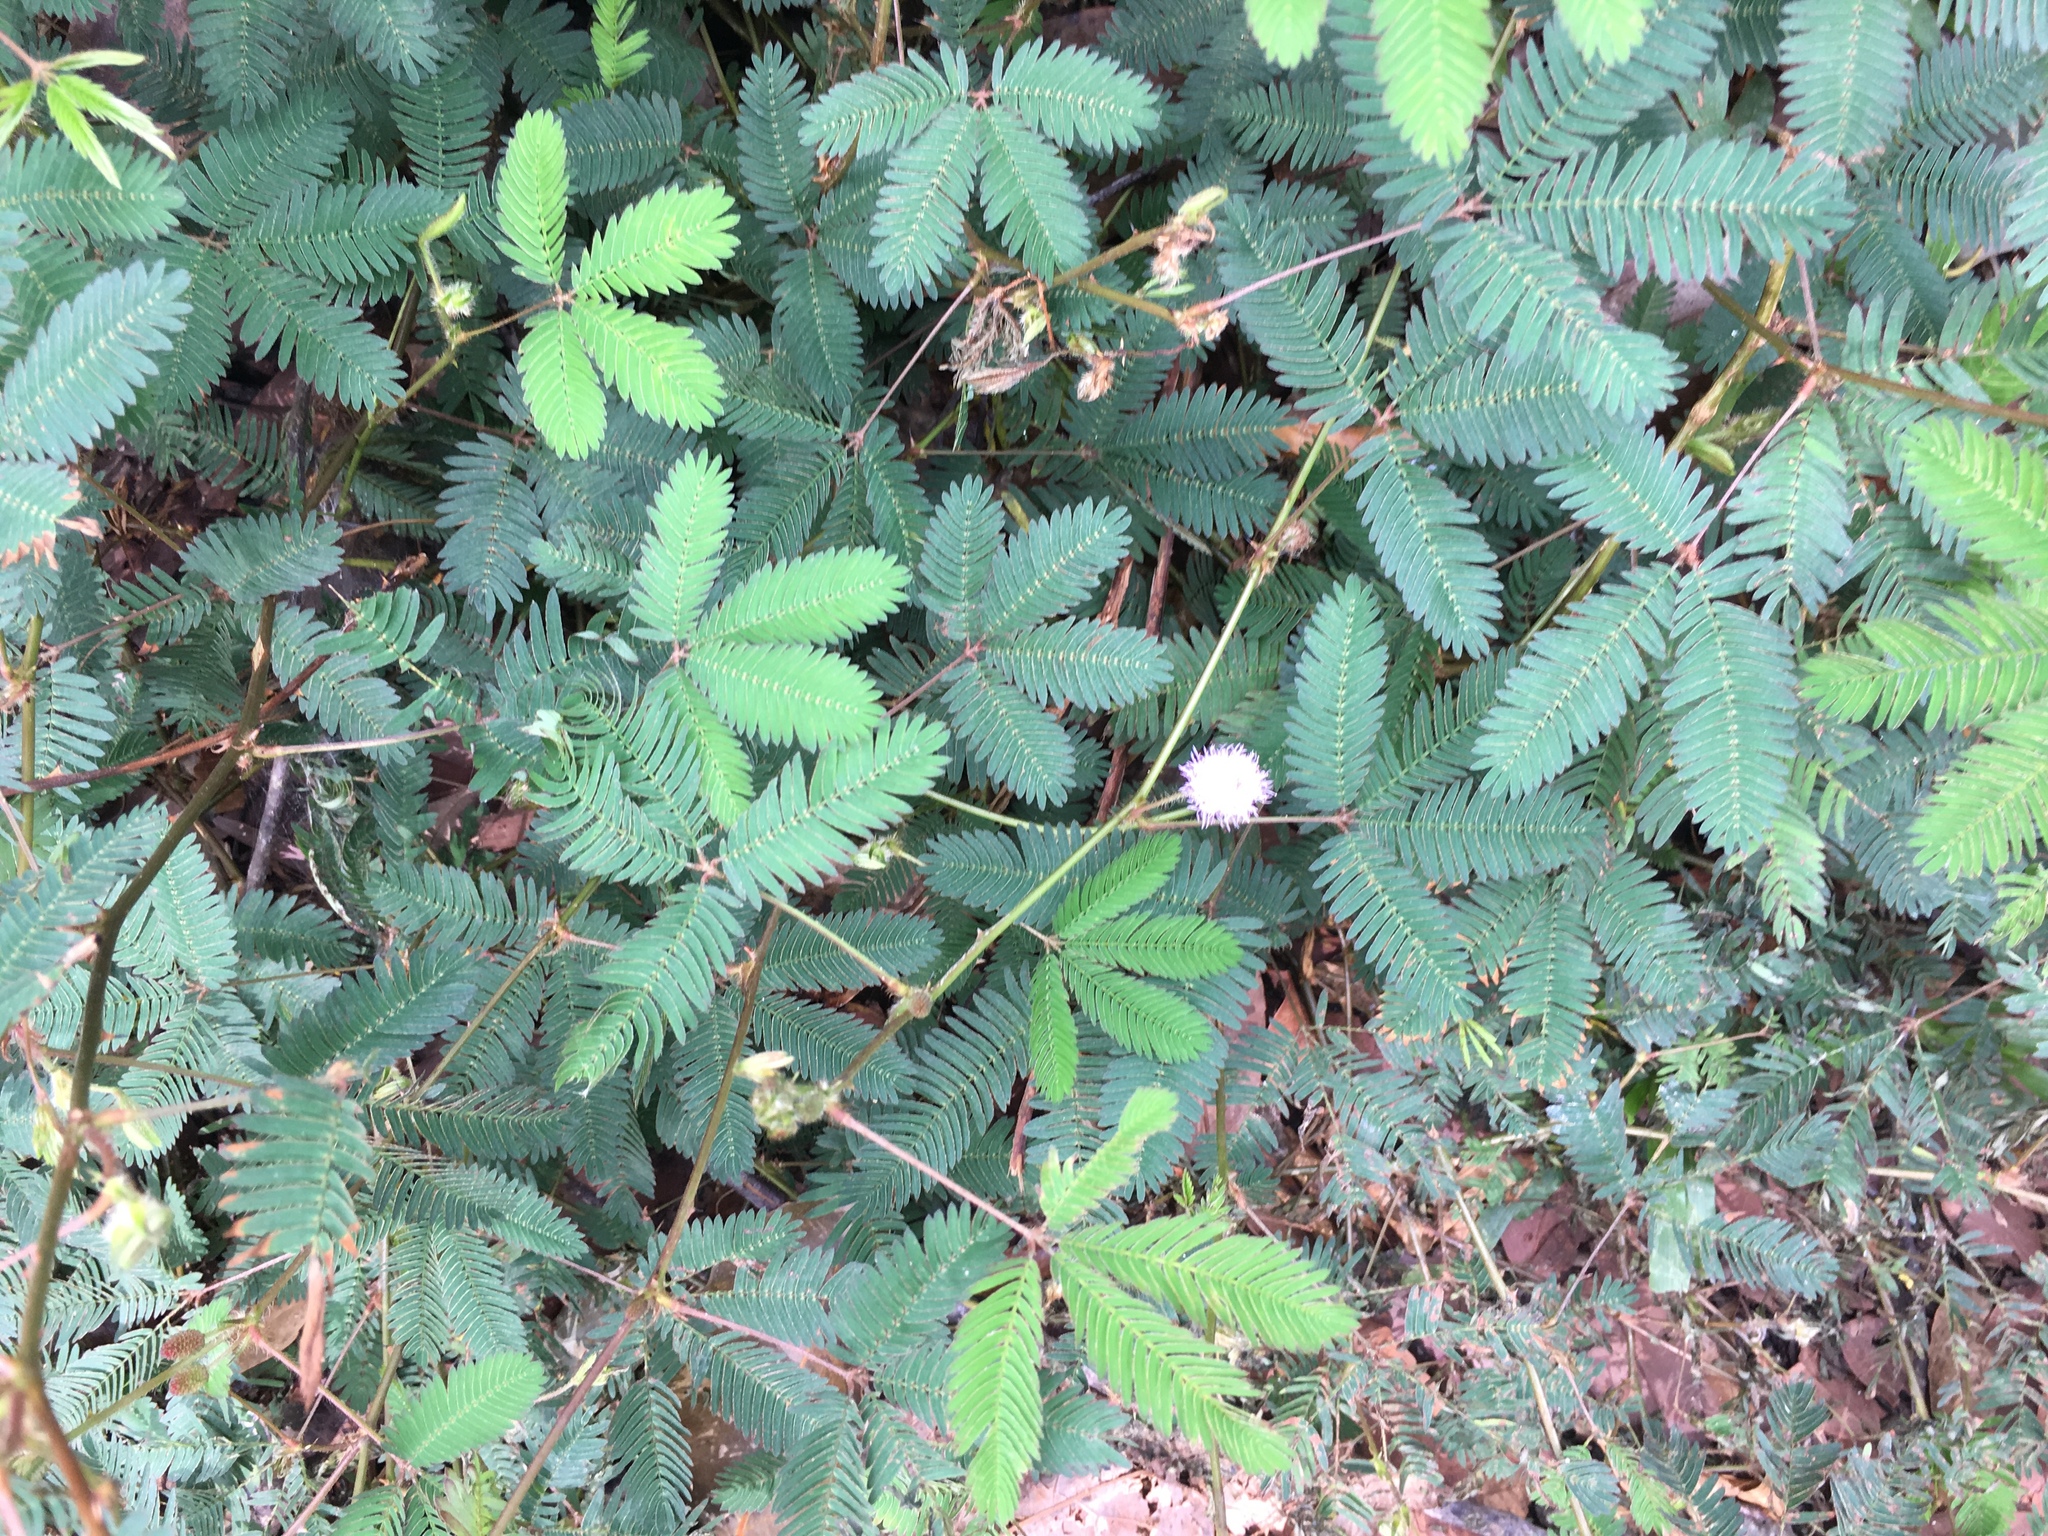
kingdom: Plantae
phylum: Tracheophyta
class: Magnoliopsida
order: Fabales
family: Fabaceae
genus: Mimosa
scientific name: Mimosa pudica
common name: Sensitive plant
